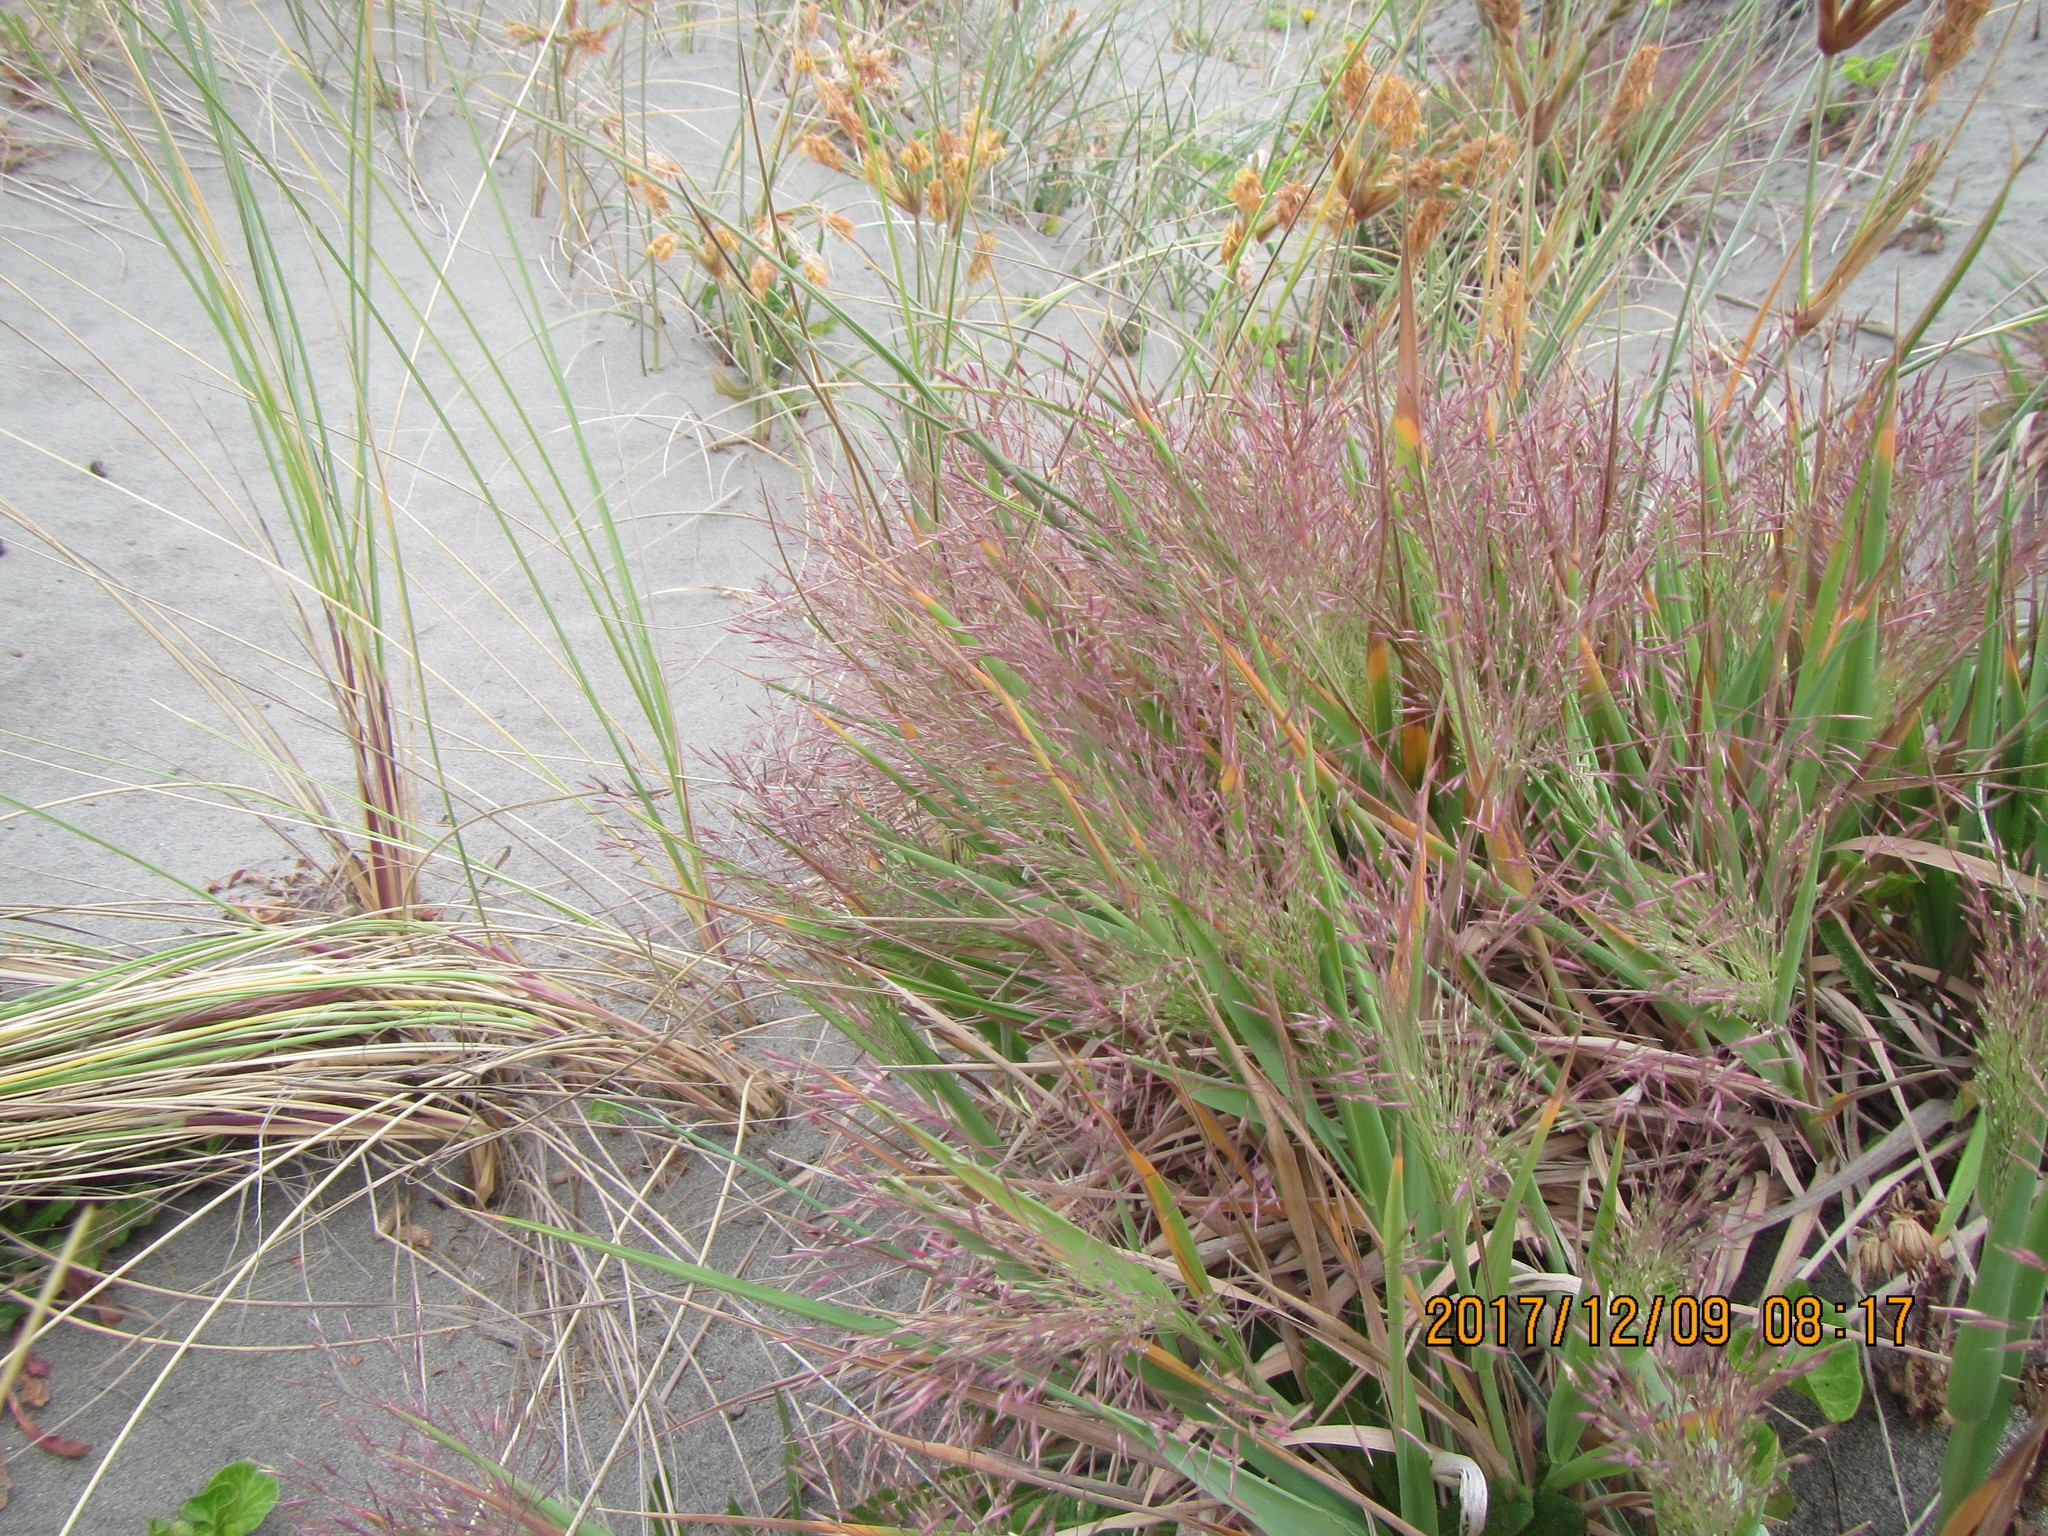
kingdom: Plantae
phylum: Tracheophyta
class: Liliopsida
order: Poales
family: Poaceae
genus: Lachnagrostis
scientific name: Lachnagrostis billardierei
